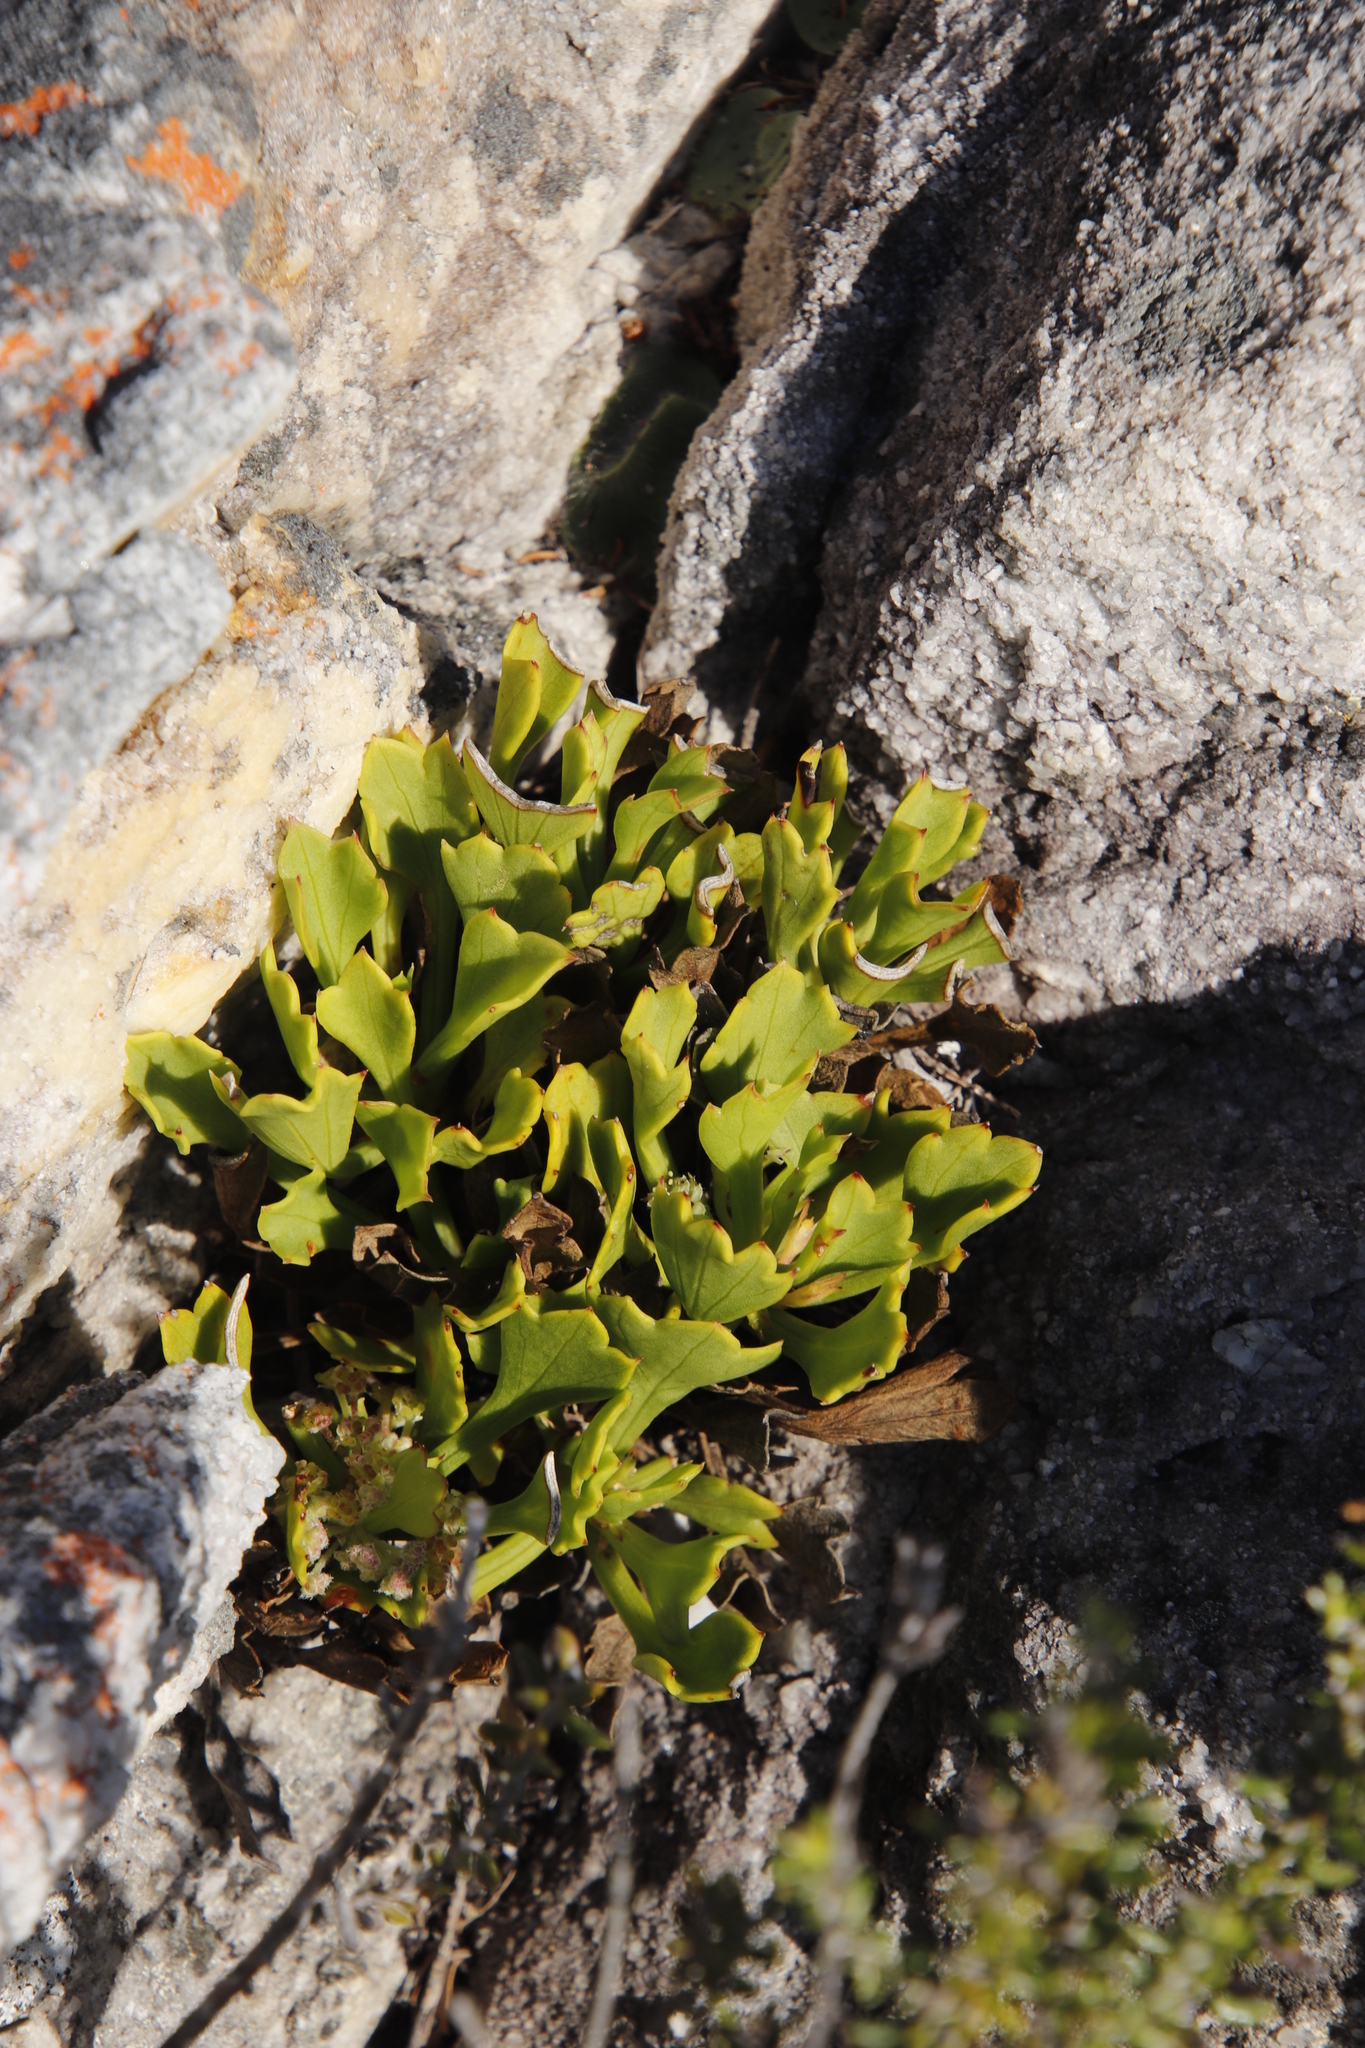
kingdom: Plantae
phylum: Tracheophyta
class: Magnoliopsida
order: Apiales
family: Apiaceae
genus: Centella
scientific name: Centella triloba
